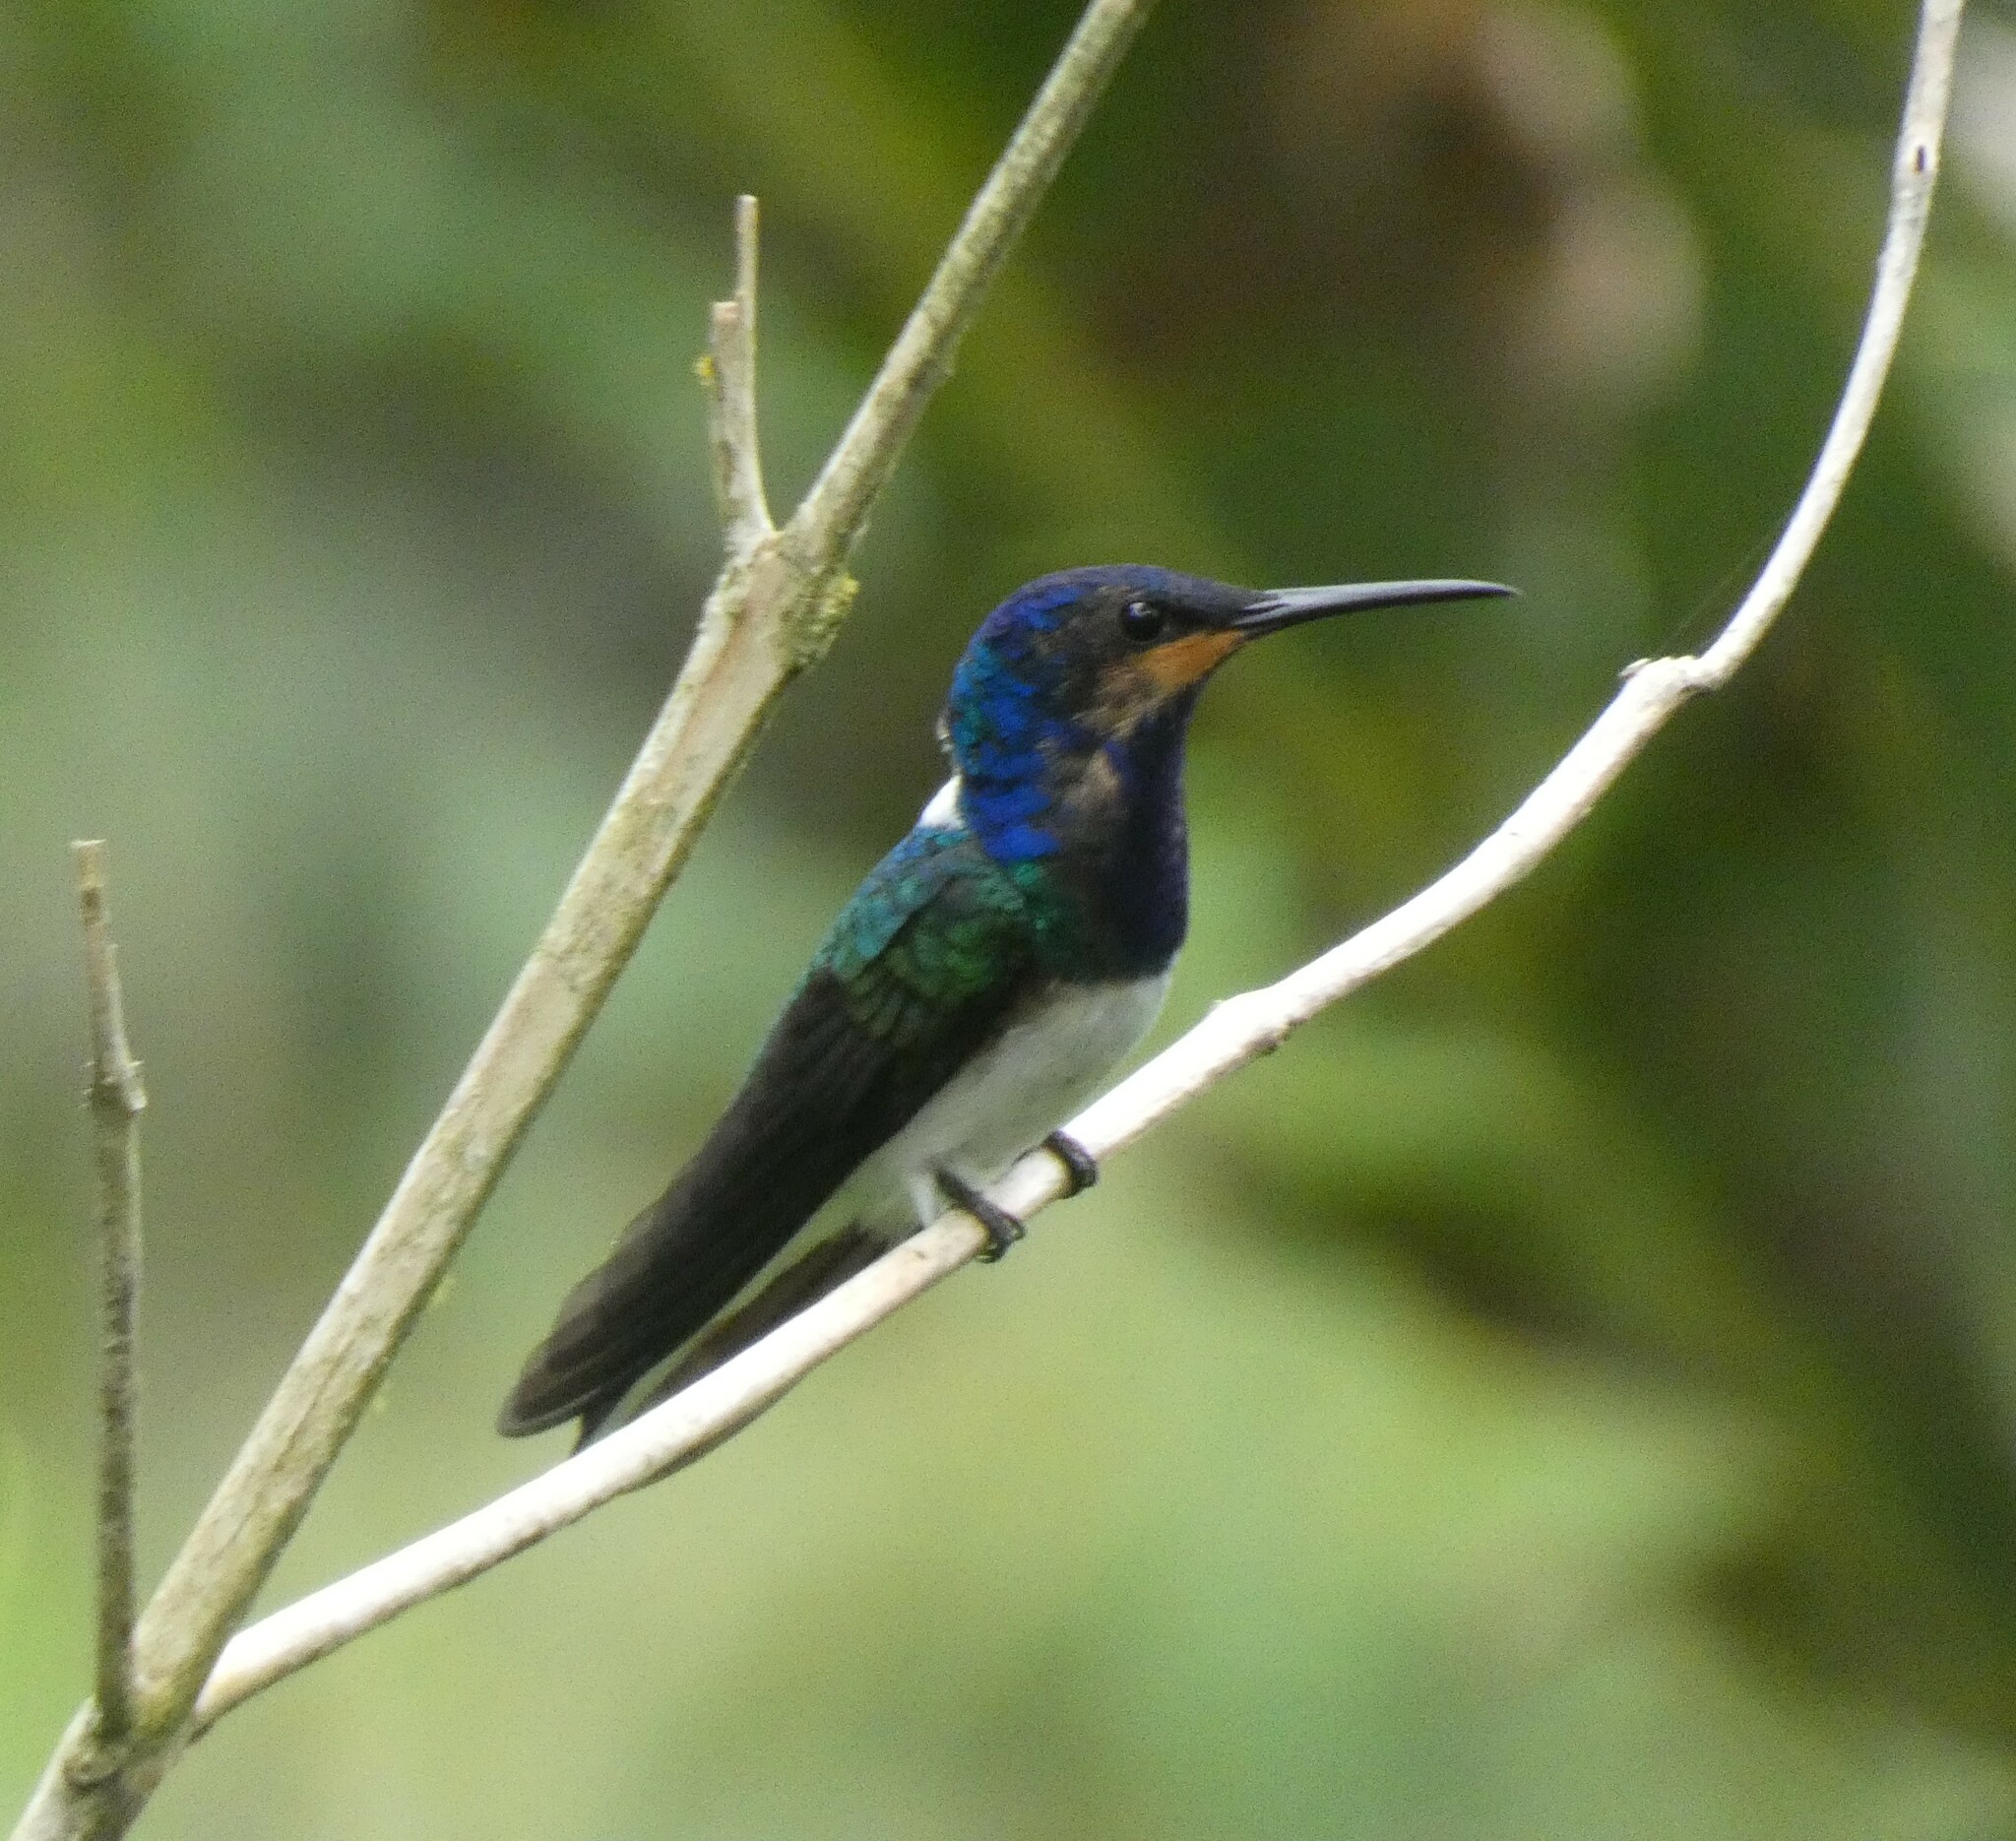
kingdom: Animalia
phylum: Chordata
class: Aves
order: Apodiformes
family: Trochilidae
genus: Florisuga
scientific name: Florisuga mellivora
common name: White-necked jacobin
